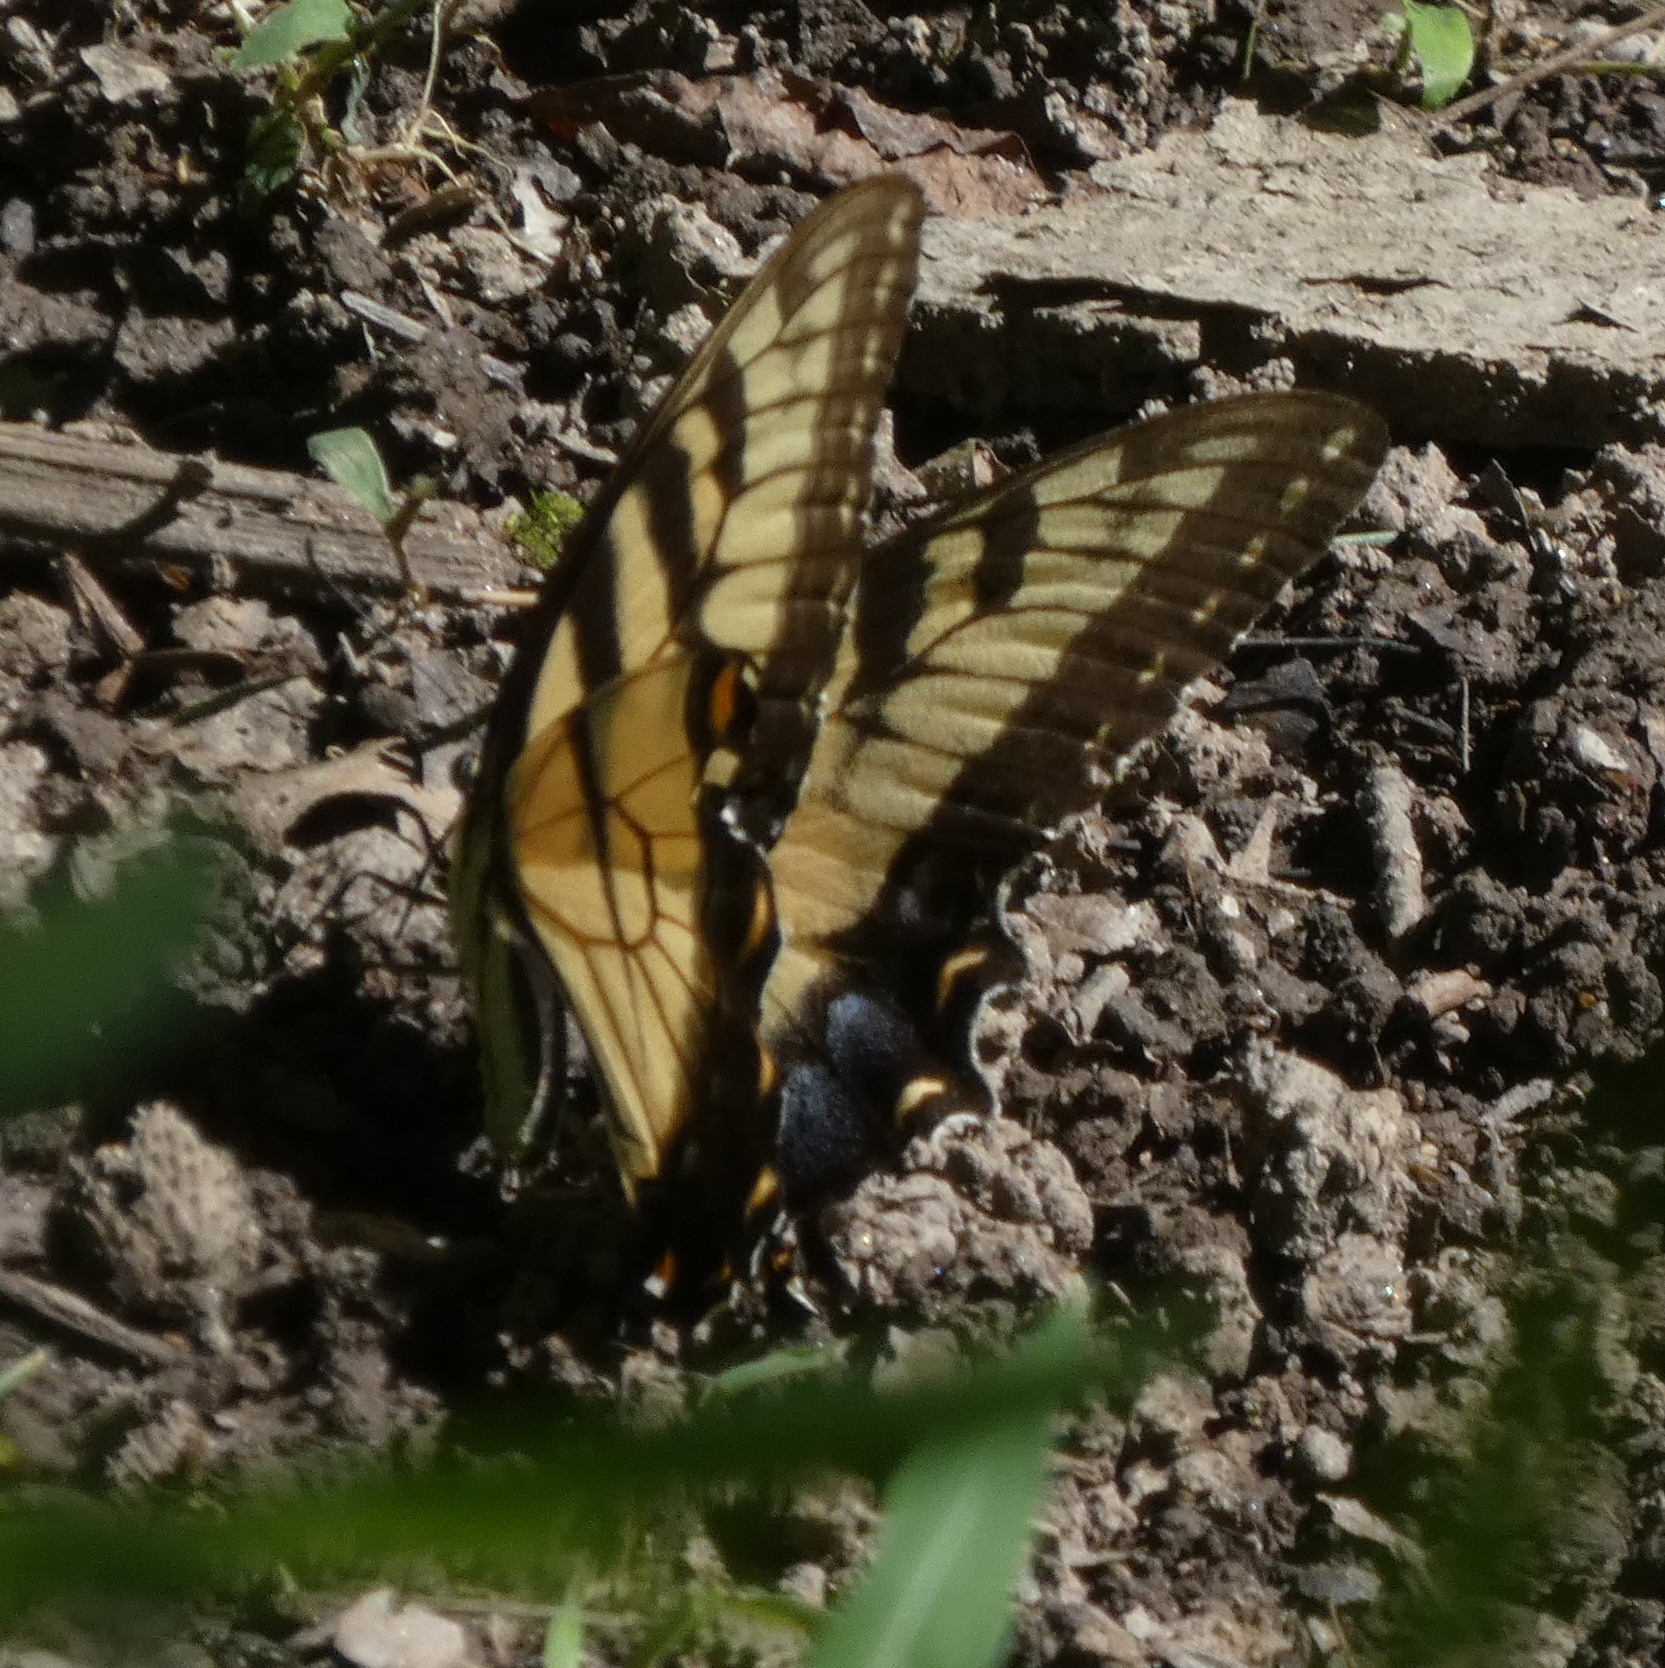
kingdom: Animalia
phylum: Arthropoda
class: Insecta
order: Lepidoptera
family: Papilionidae
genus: Papilio
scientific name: Papilio glaucus
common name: Tiger swallowtail
